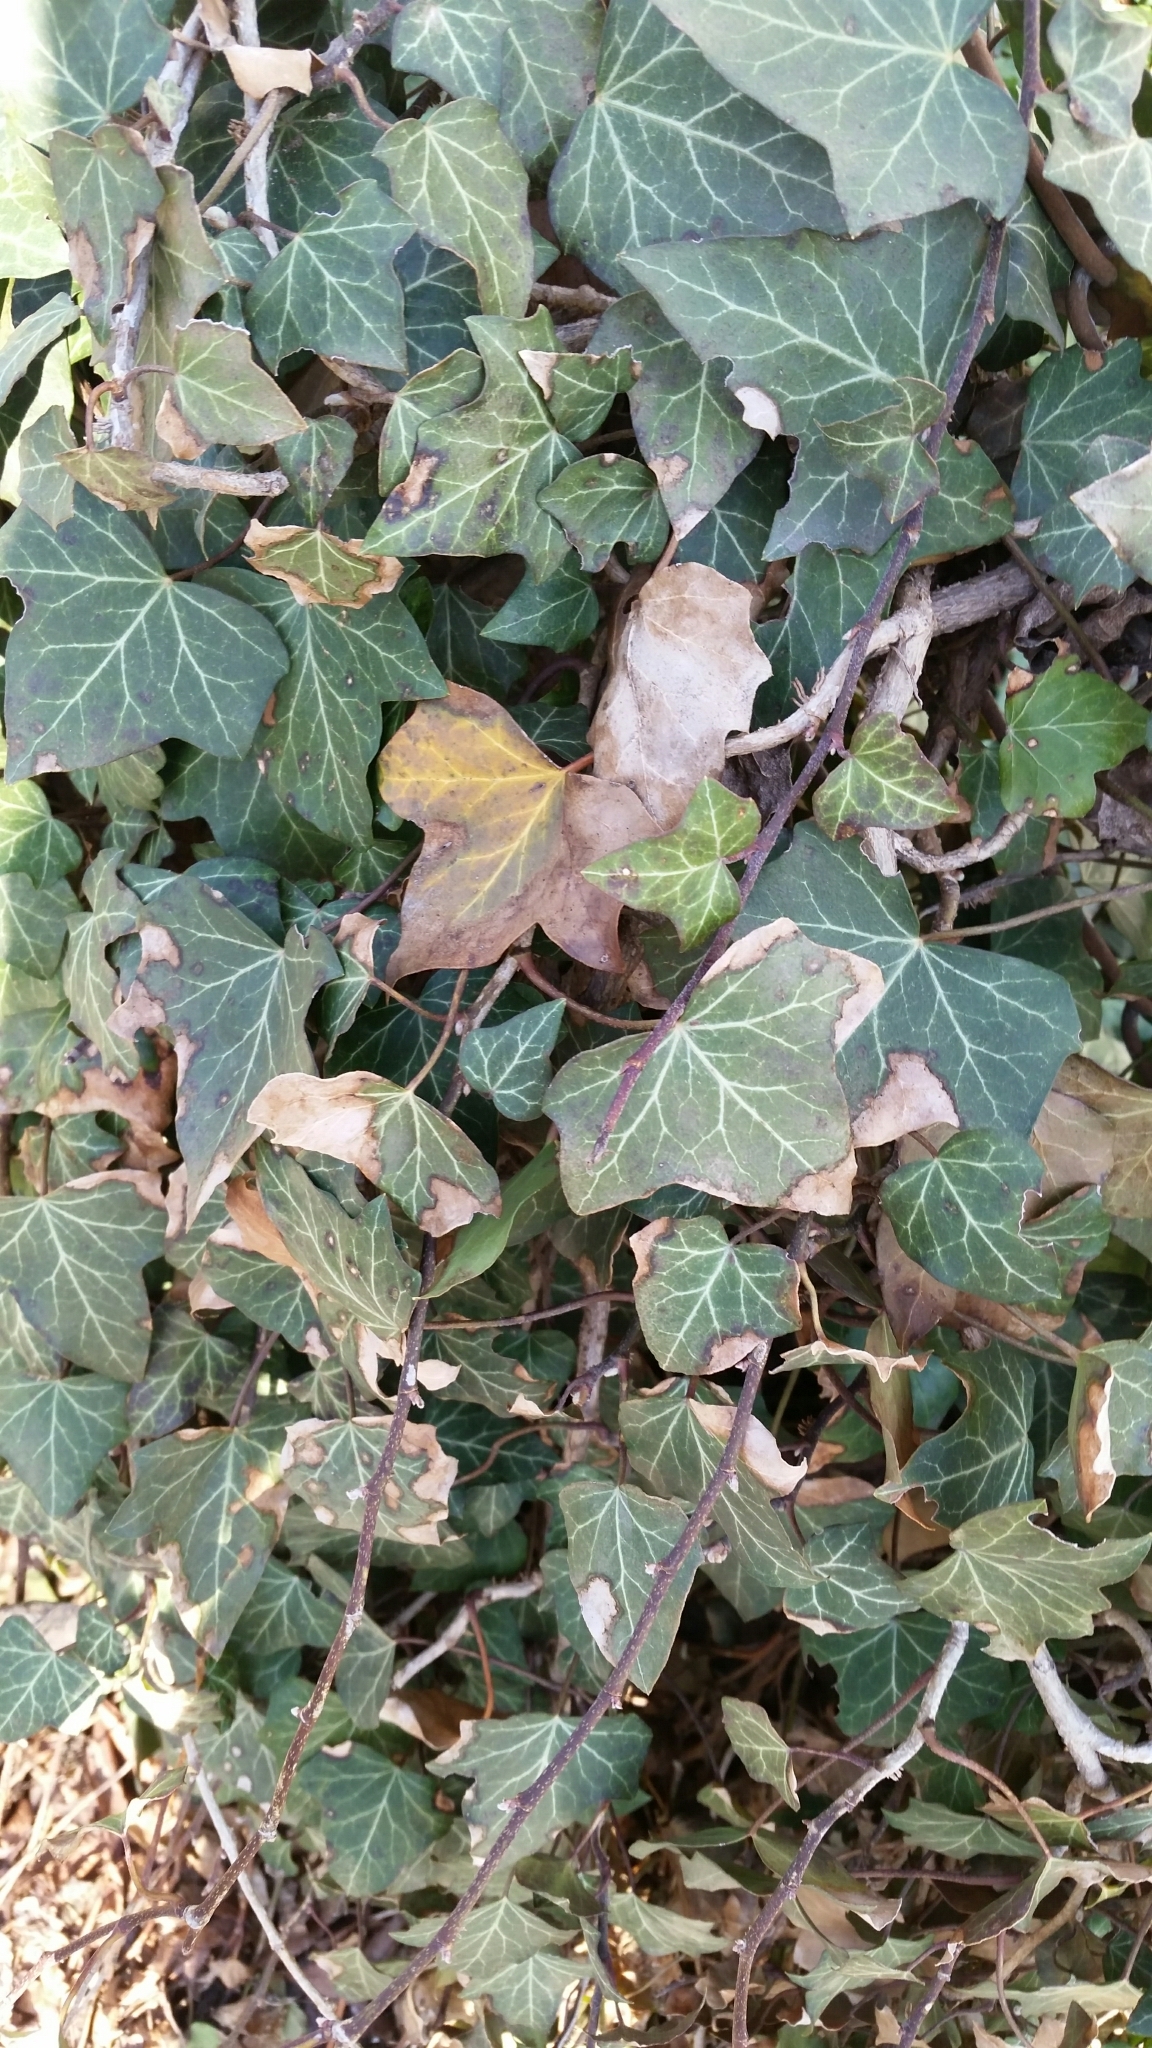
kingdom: Plantae
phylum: Tracheophyta
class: Magnoliopsida
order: Apiales
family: Araliaceae
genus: Hedera
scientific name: Hedera helix
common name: Ivy
